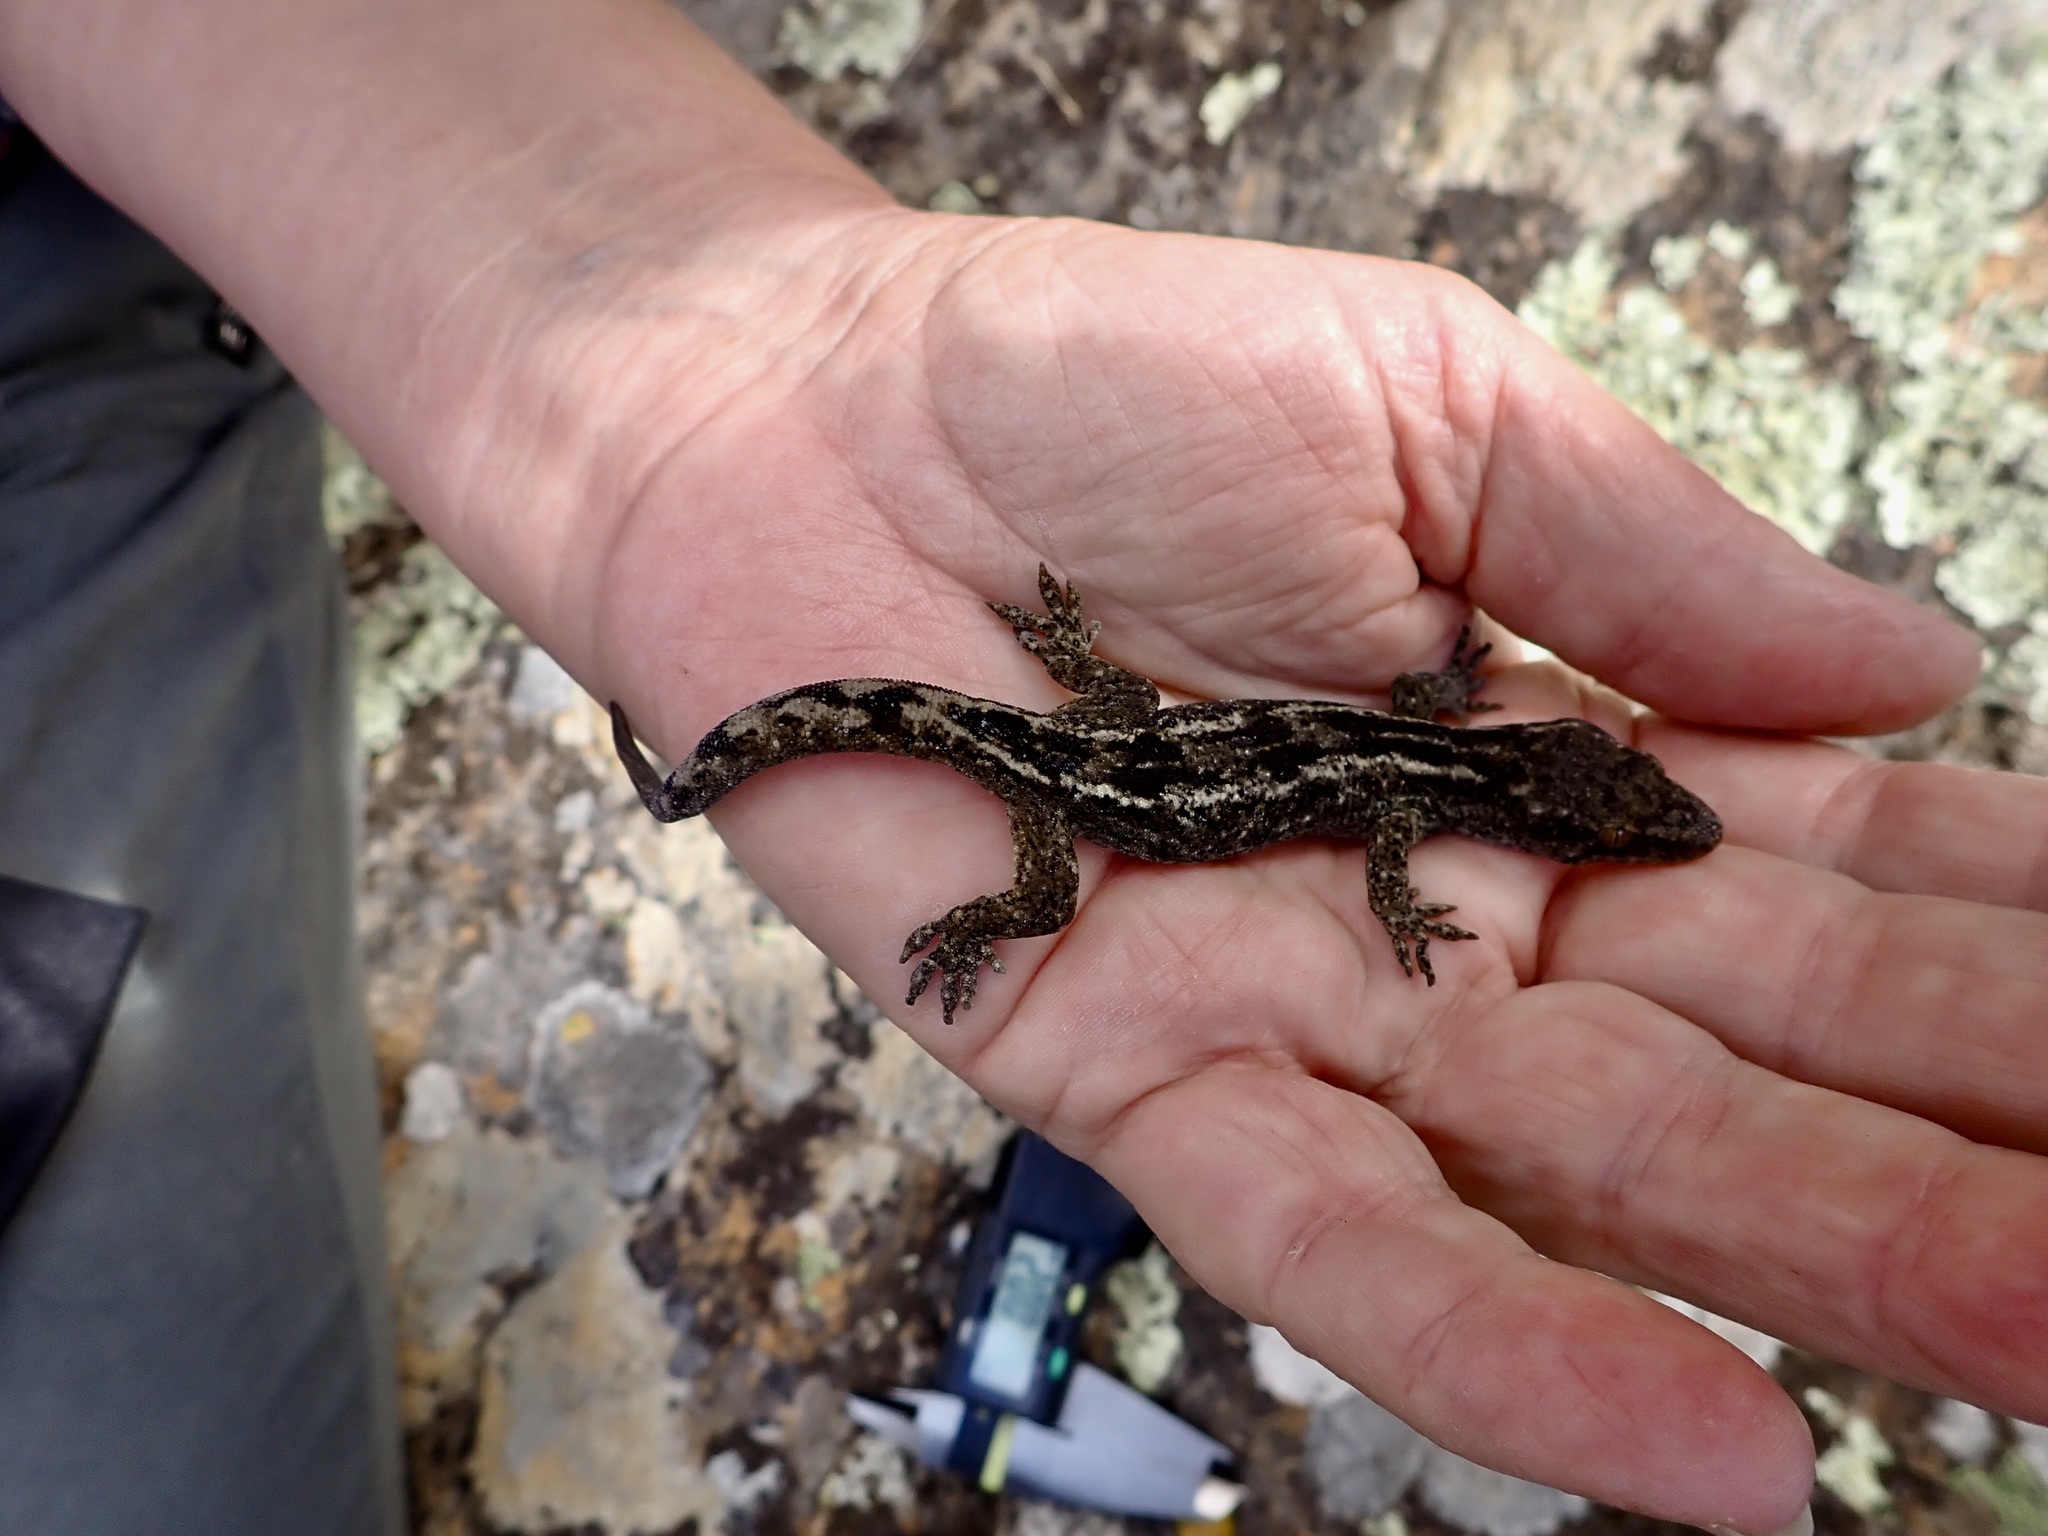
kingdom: Animalia
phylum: Chordata
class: Squamata
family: Diplodactylidae
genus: Woodworthia
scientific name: Woodworthia brunnea
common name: Canterbury gecko
